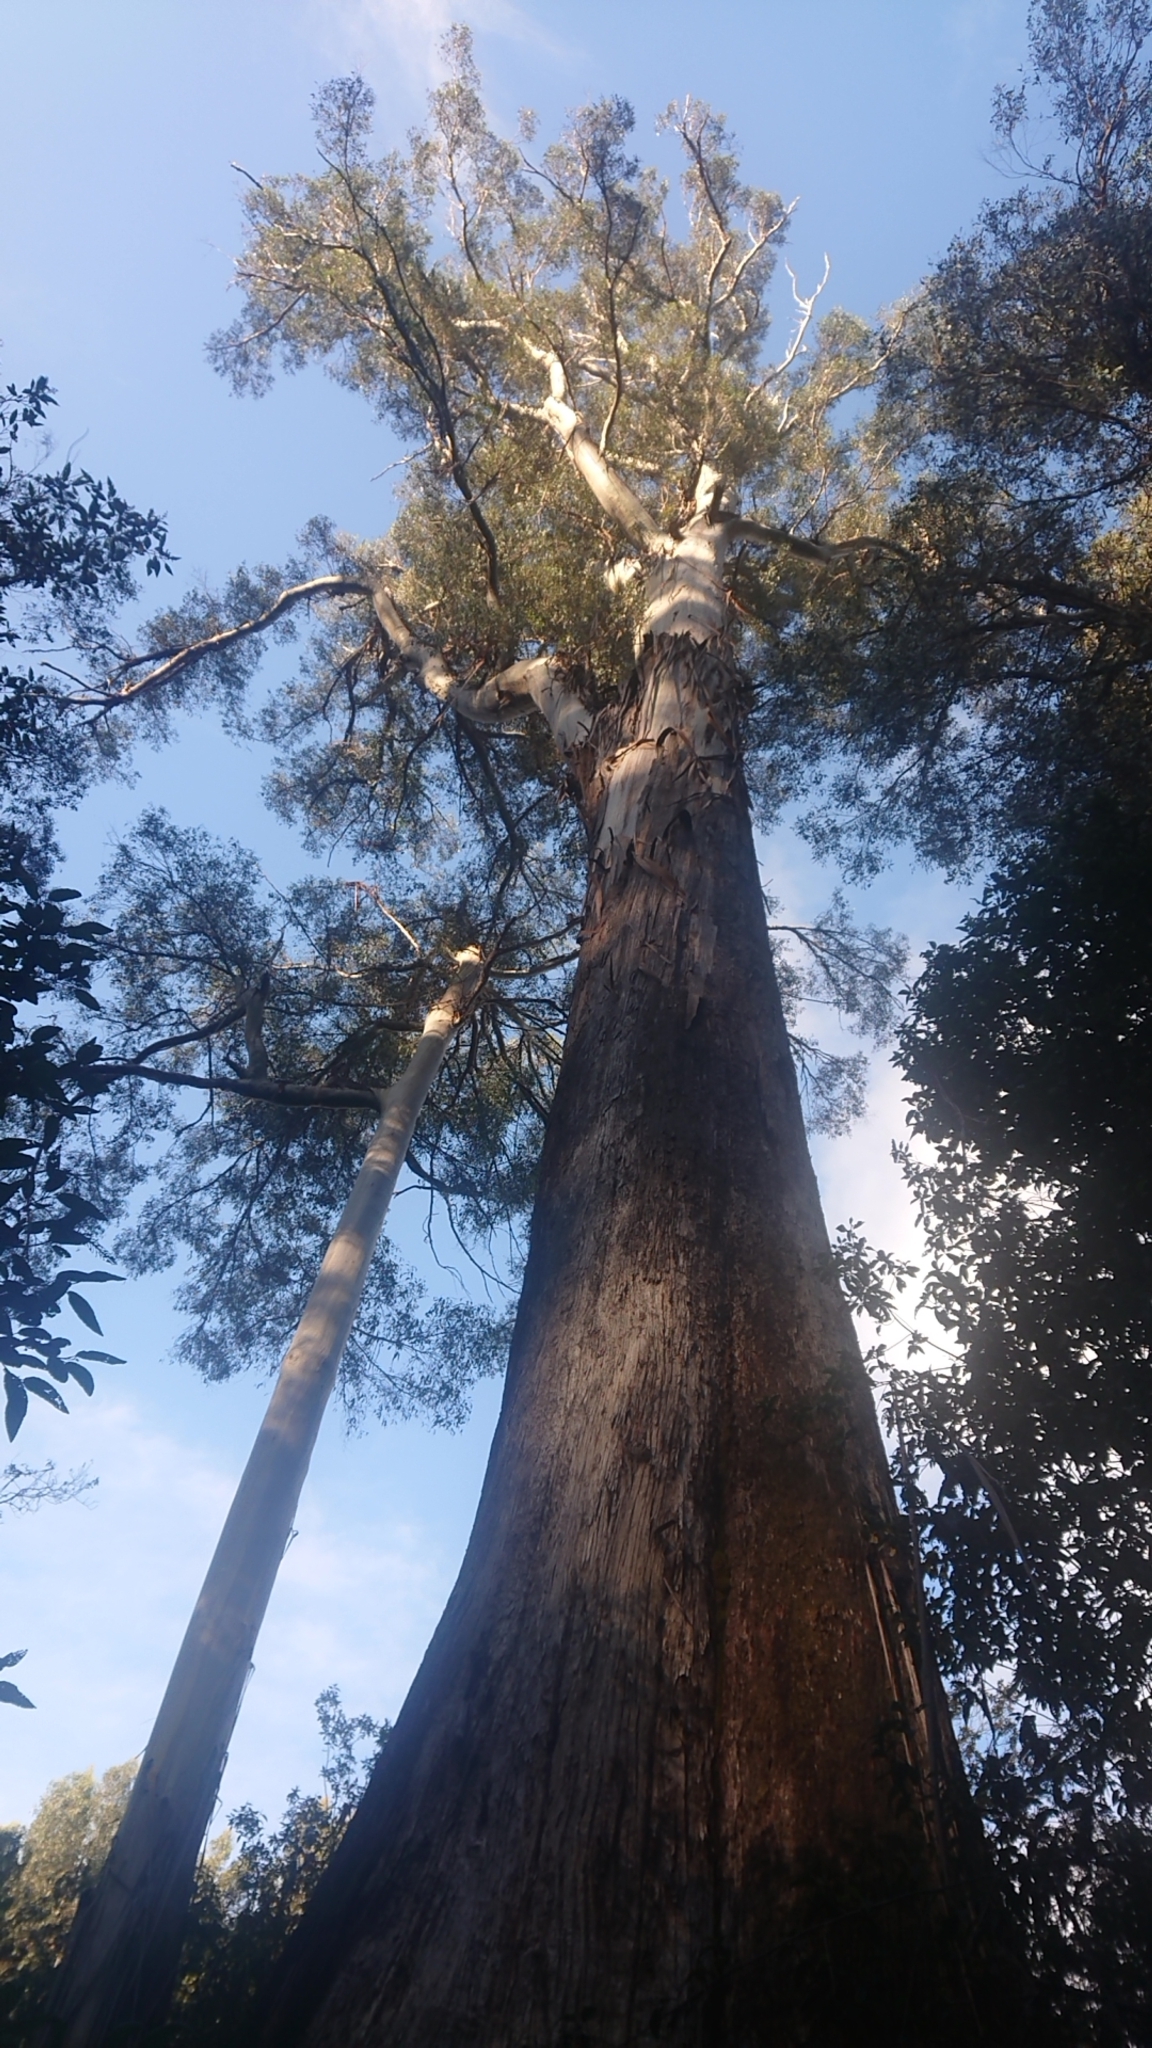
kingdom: Plantae
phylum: Tracheophyta
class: Magnoliopsida
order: Myrtales
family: Myrtaceae
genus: Eucalyptus
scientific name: Eucalyptus regnans
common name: Stringy gum
